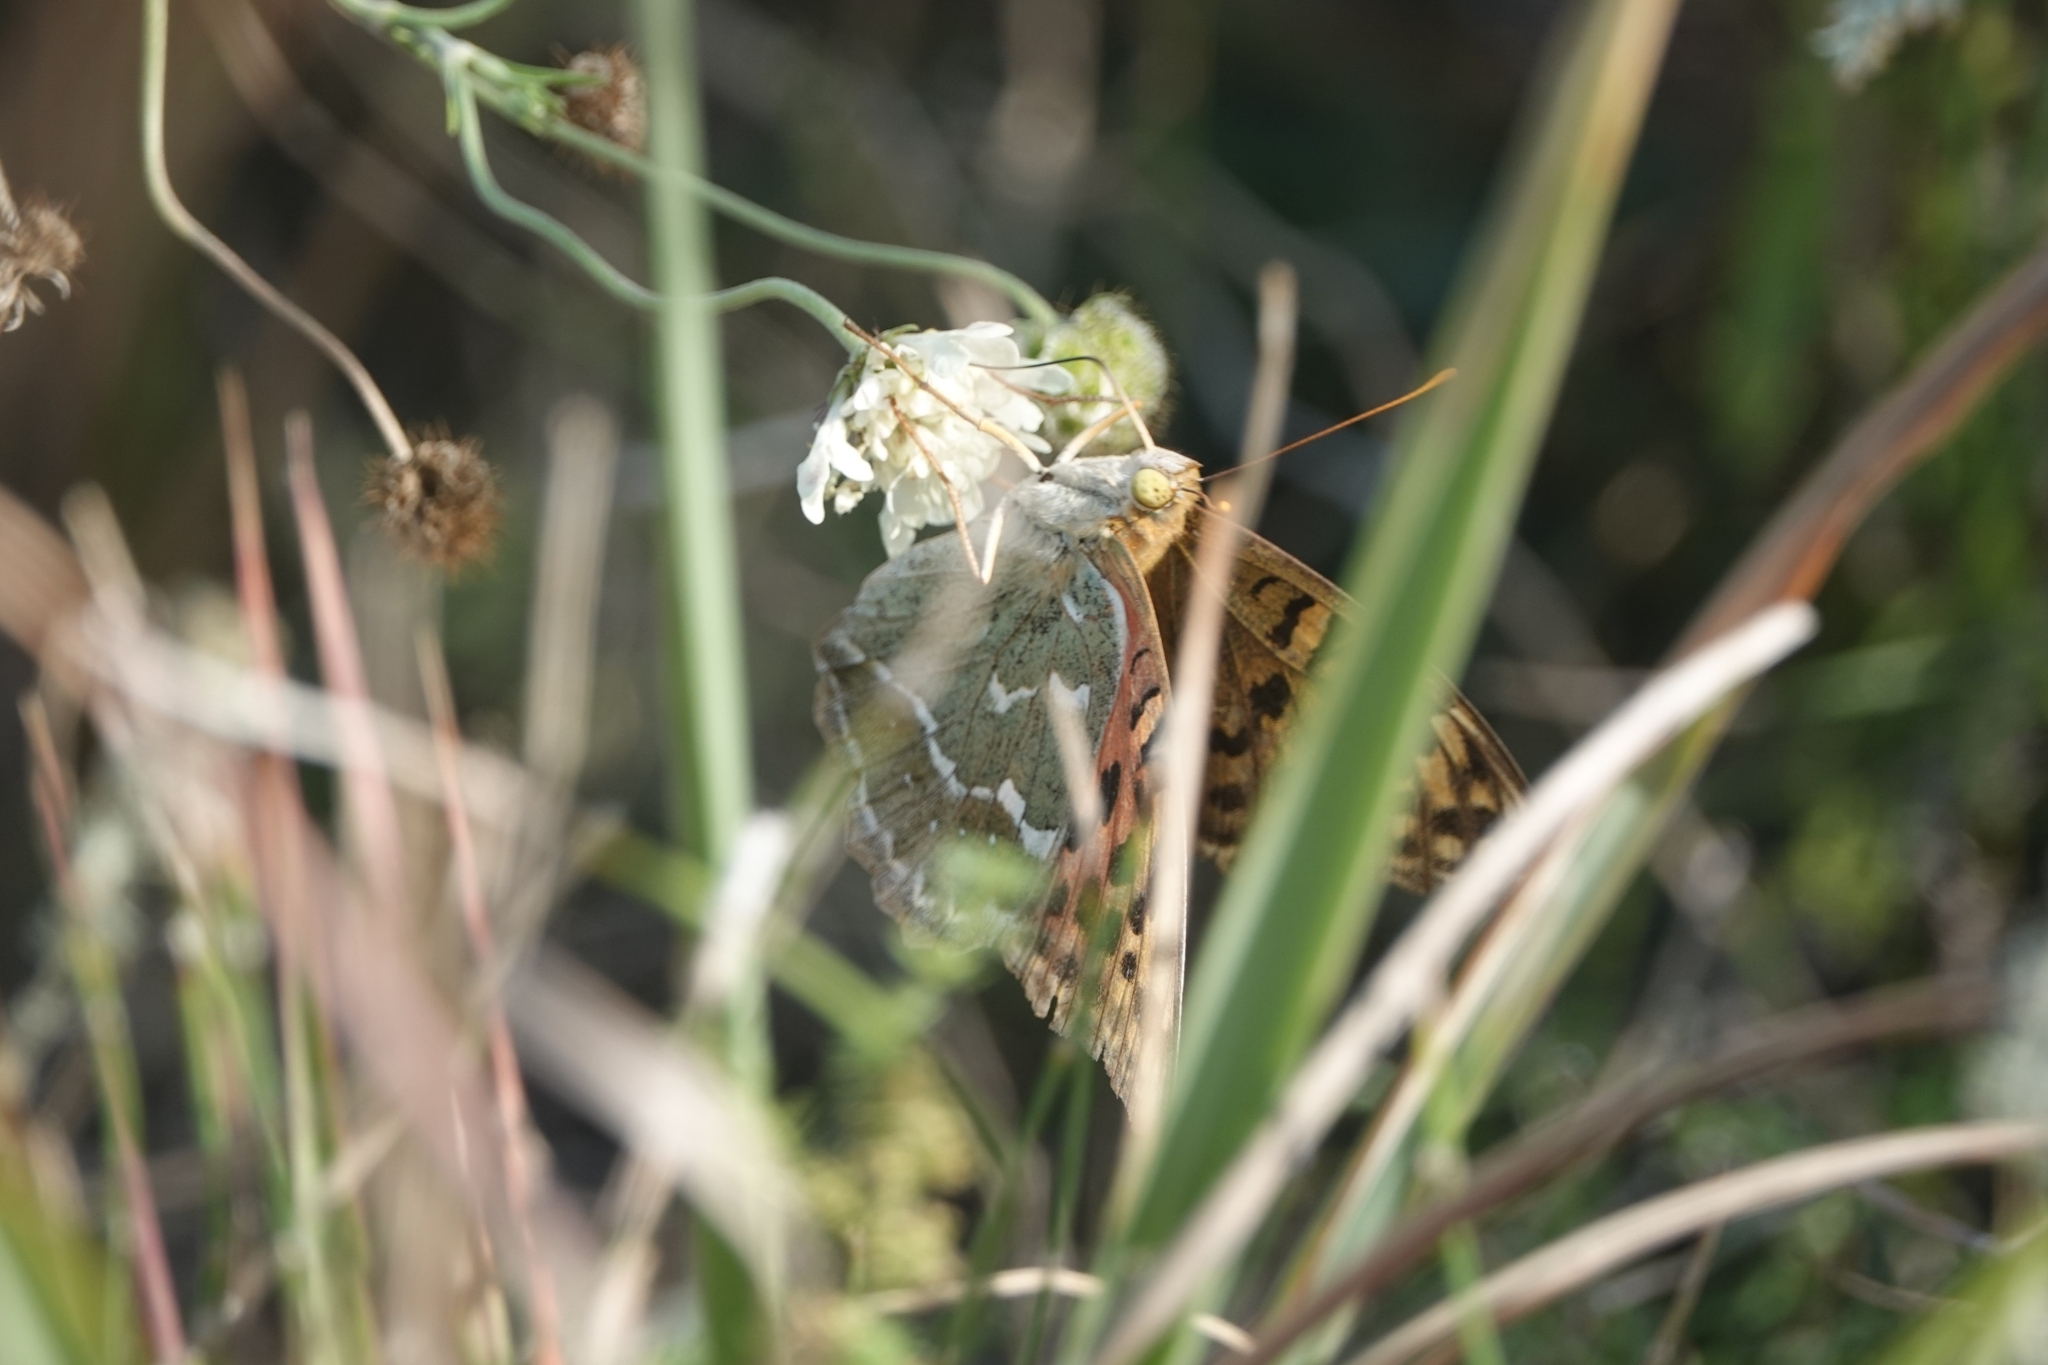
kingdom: Animalia
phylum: Arthropoda
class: Insecta
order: Lepidoptera
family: Nymphalidae
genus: Damora
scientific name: Damora pandora
